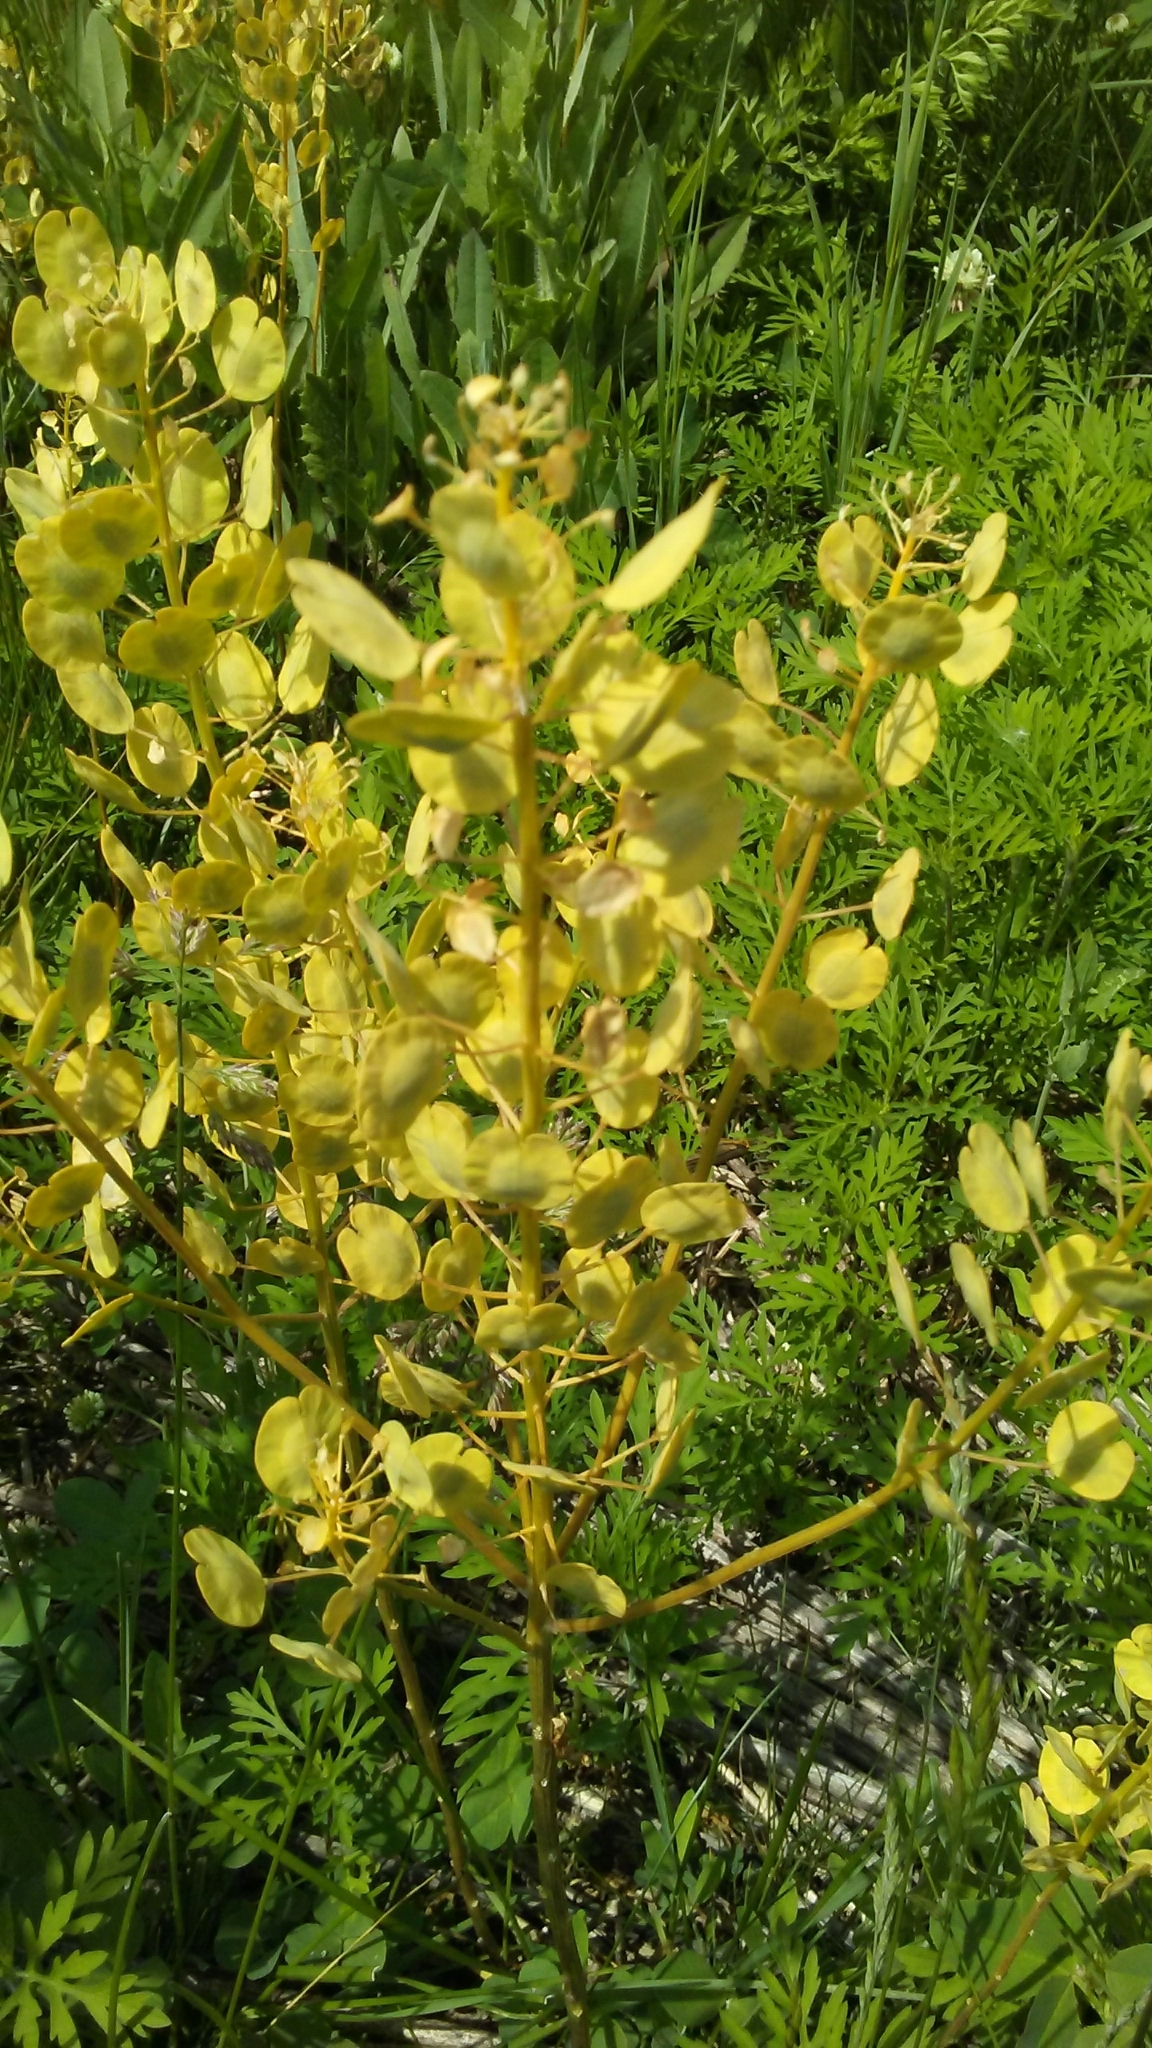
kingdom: Plantae
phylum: Tracheophyta
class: Magnoliopsida
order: Brassicales
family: Brassicaceae
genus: Thlaspi
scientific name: Thlaspi arvense
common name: Field pennycress
